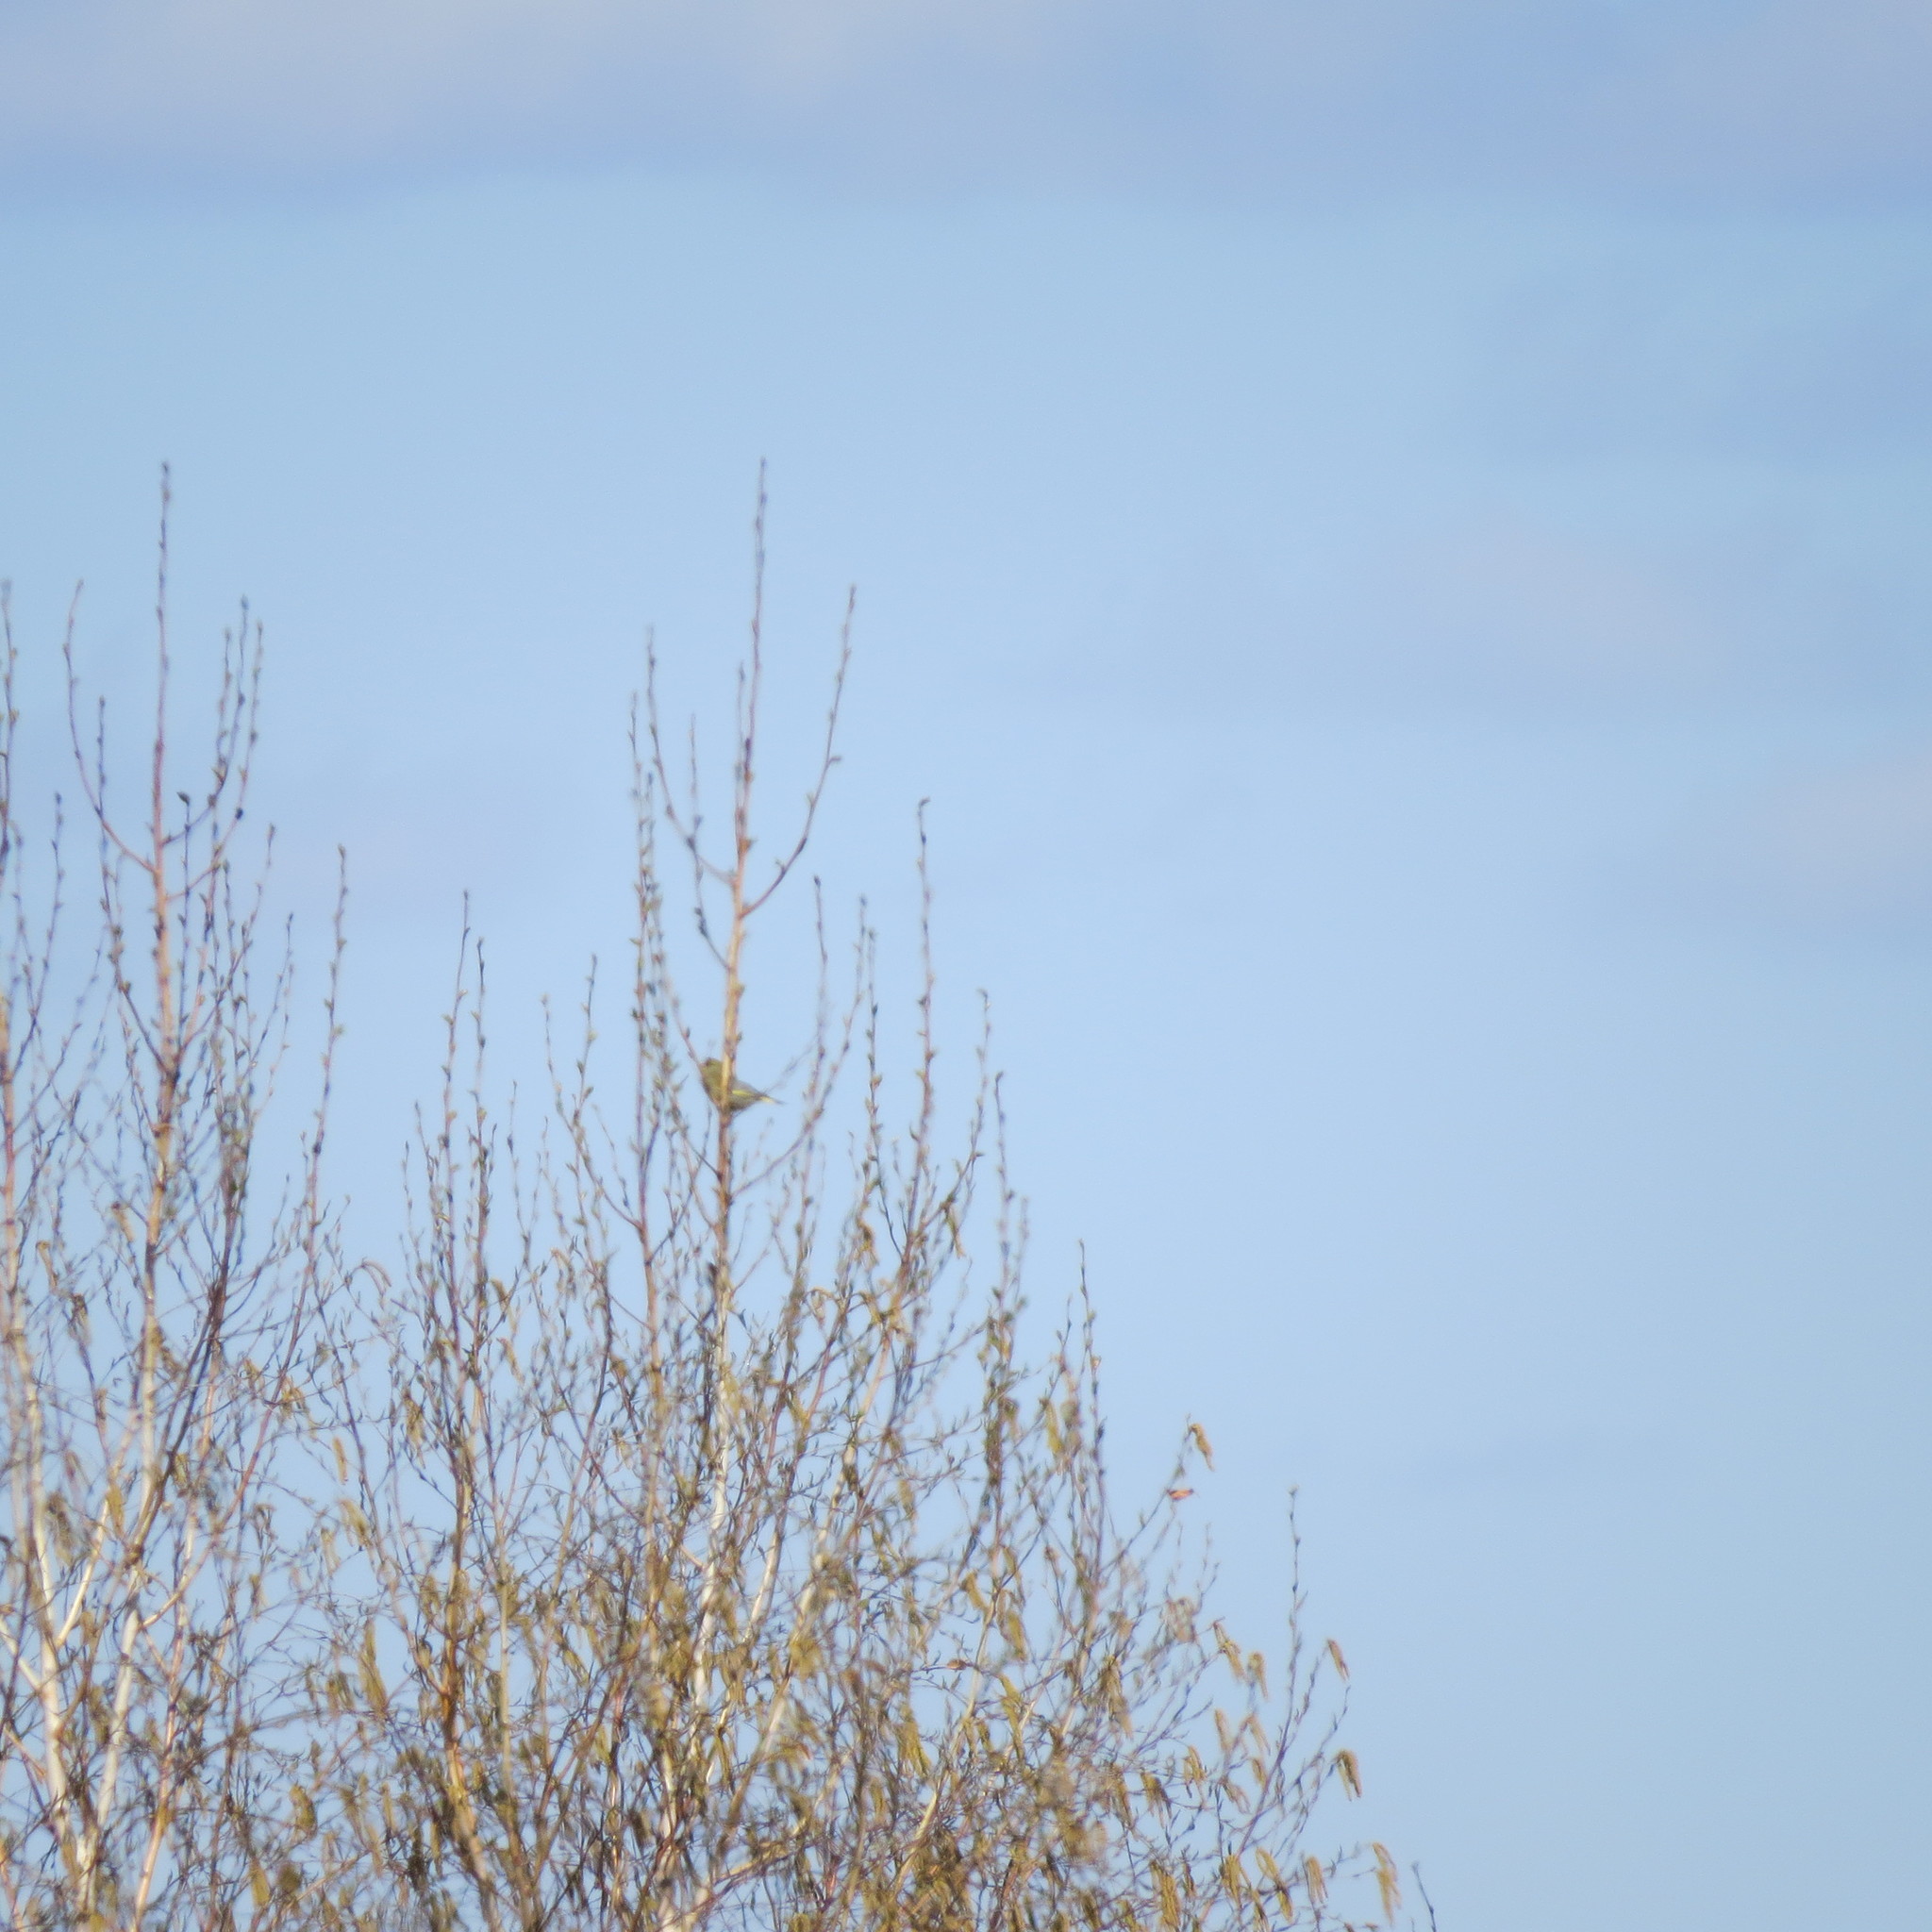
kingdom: Plantae
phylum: Tracheophyta
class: Liliopsida
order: Poales
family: Poaceae
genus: Chloris
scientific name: Chloris chloris
